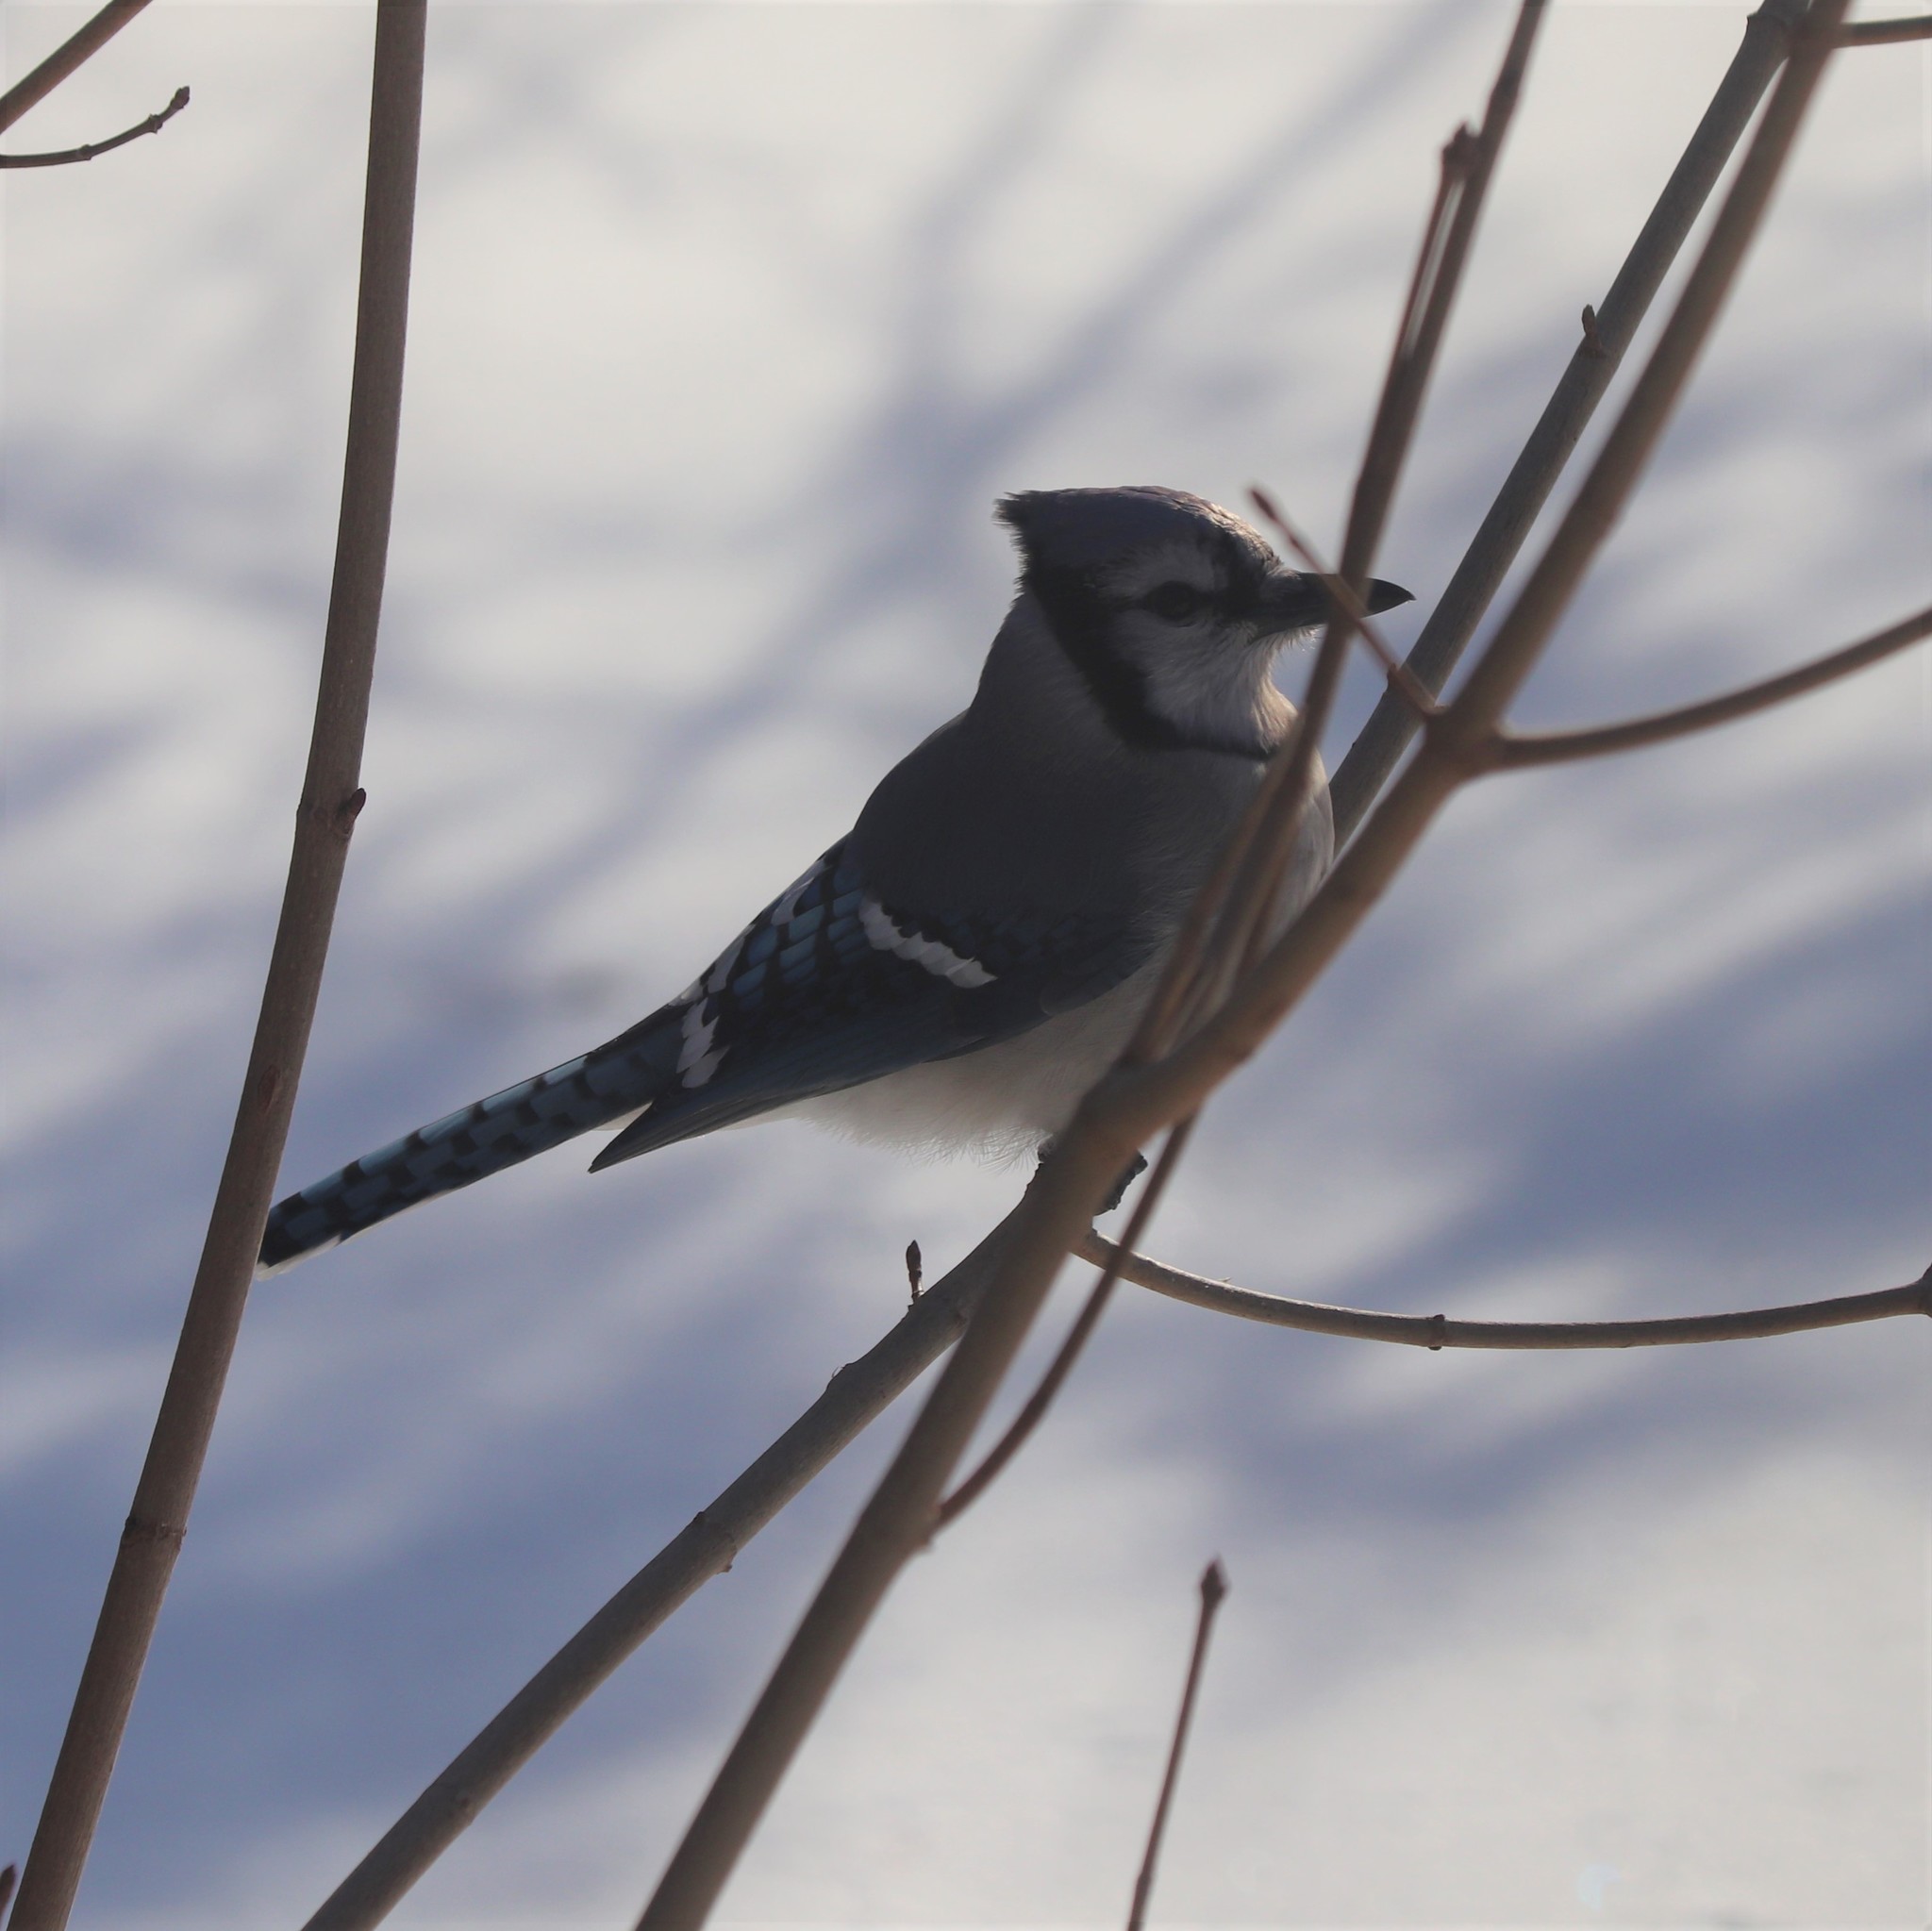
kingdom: Animalia
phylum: Chordata
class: Aves
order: Passeriformes
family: Corvidae
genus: Cyanocitta
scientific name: Cyanocitta cristata
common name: Blue jay
